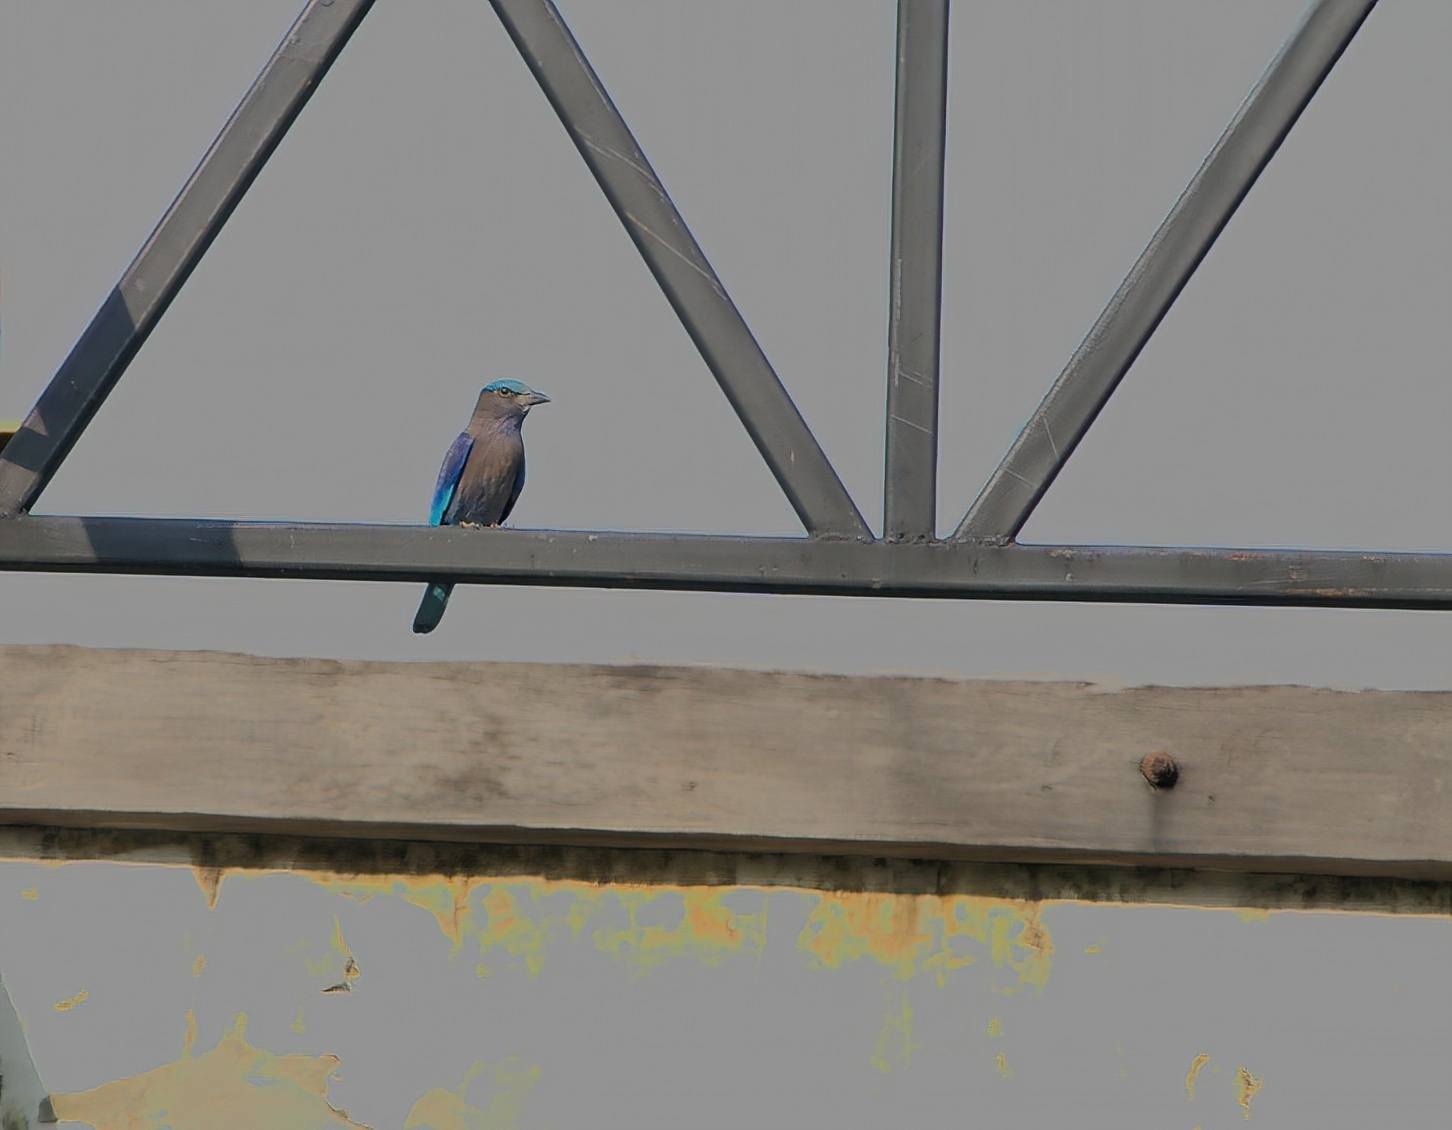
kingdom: Animalia
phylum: Chordata
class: Aves
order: Coraciiformes
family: Coraciidae
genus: Coracias
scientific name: Coracias affinis
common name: Indochinese roller
